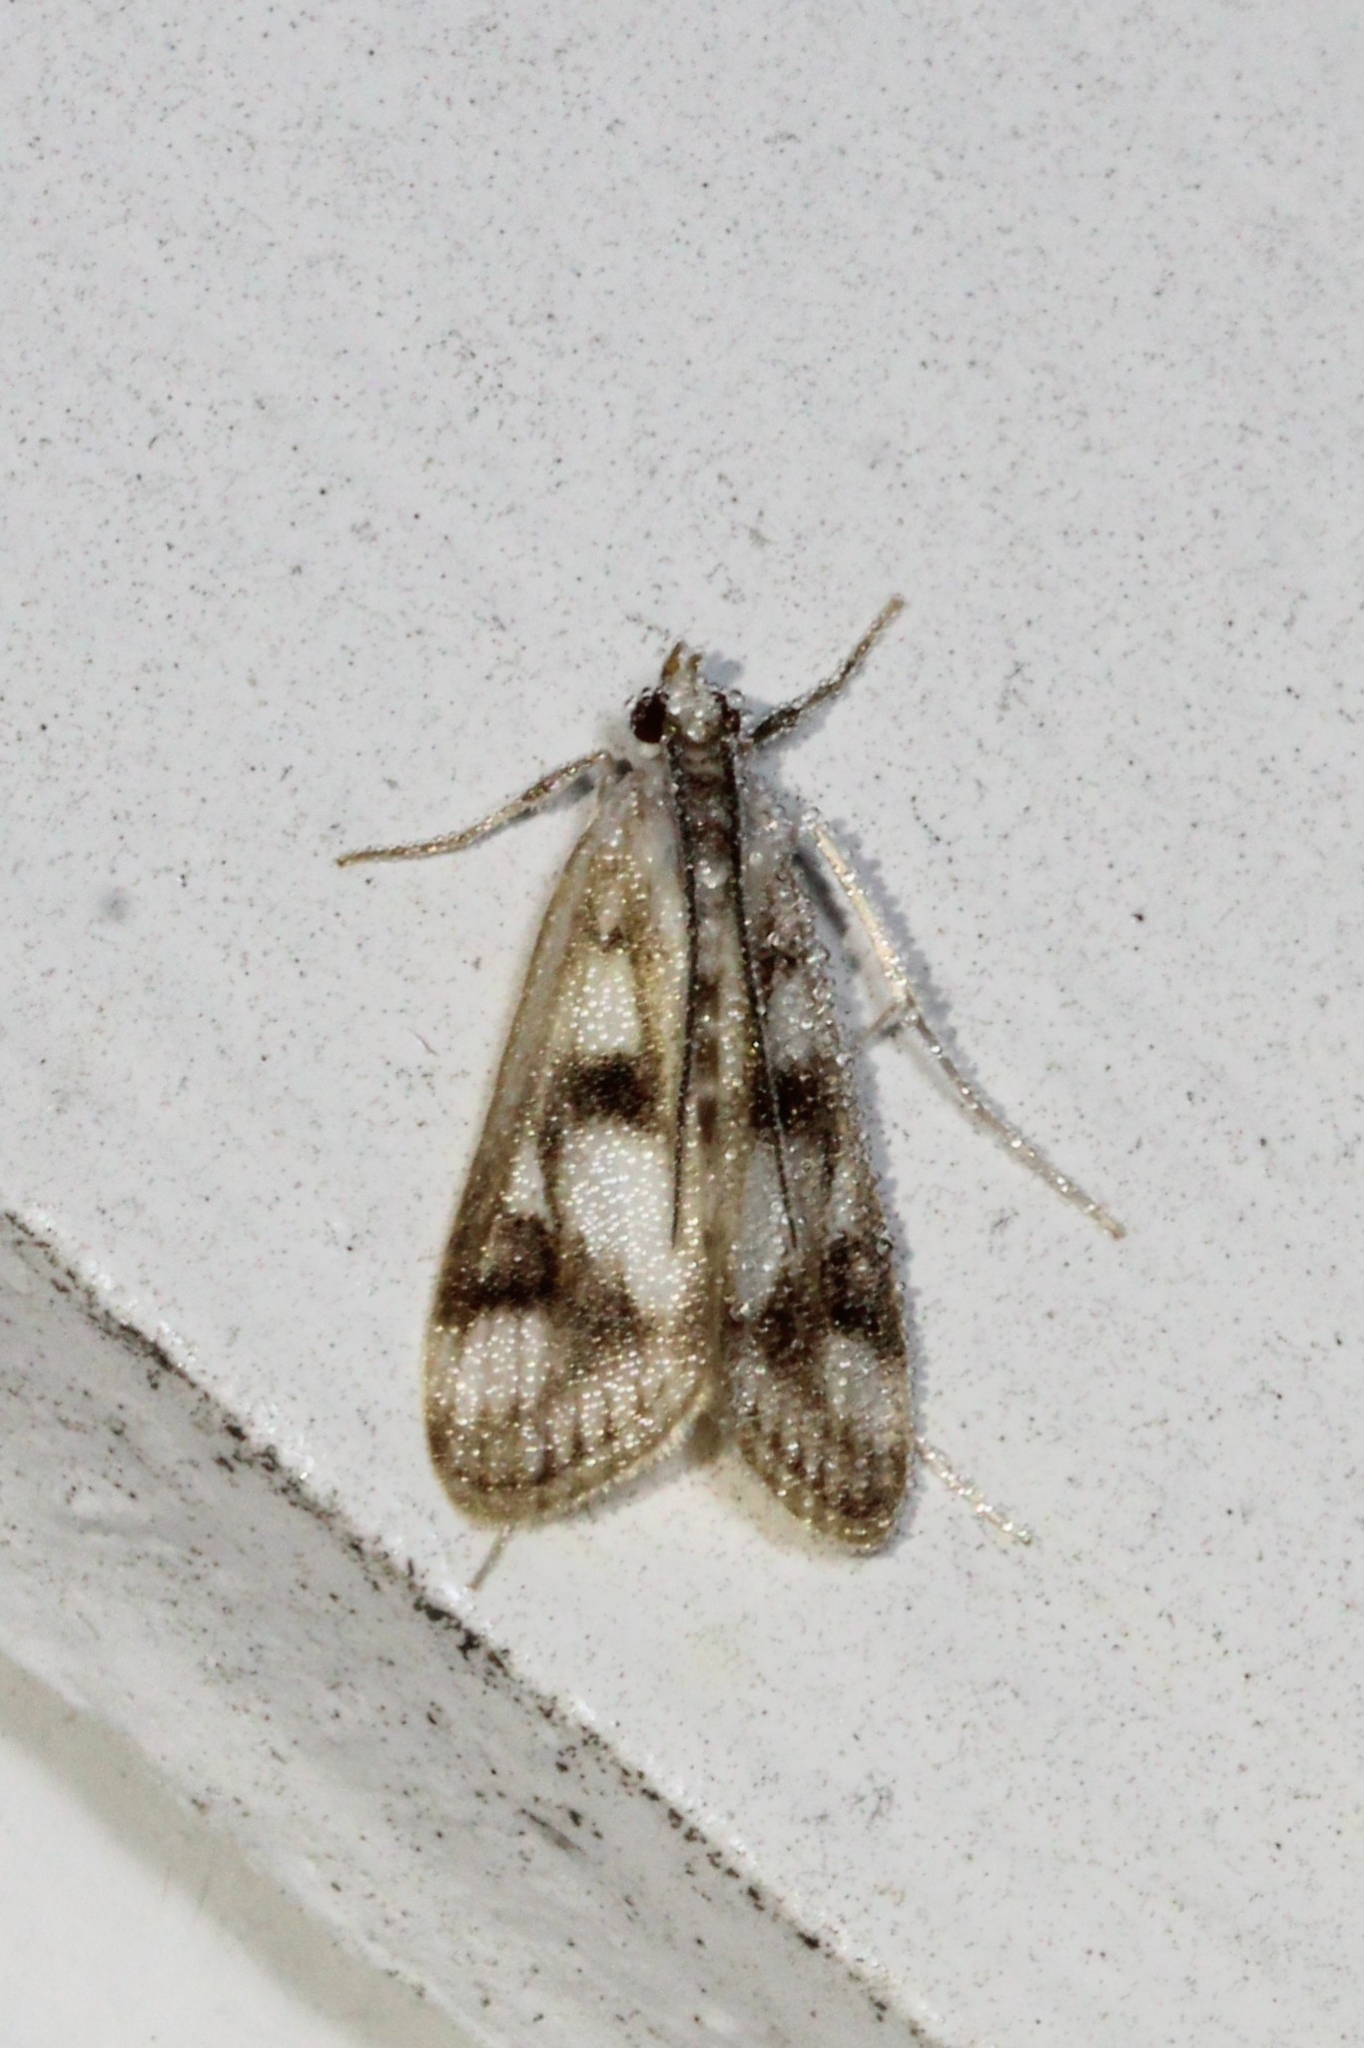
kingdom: Animalia
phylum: Arthropoda
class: Insecta
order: Lepidoptera
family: Crambidae
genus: Parapoynx
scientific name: Parapoynx maculalis
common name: Polymorphic pondweed moth
